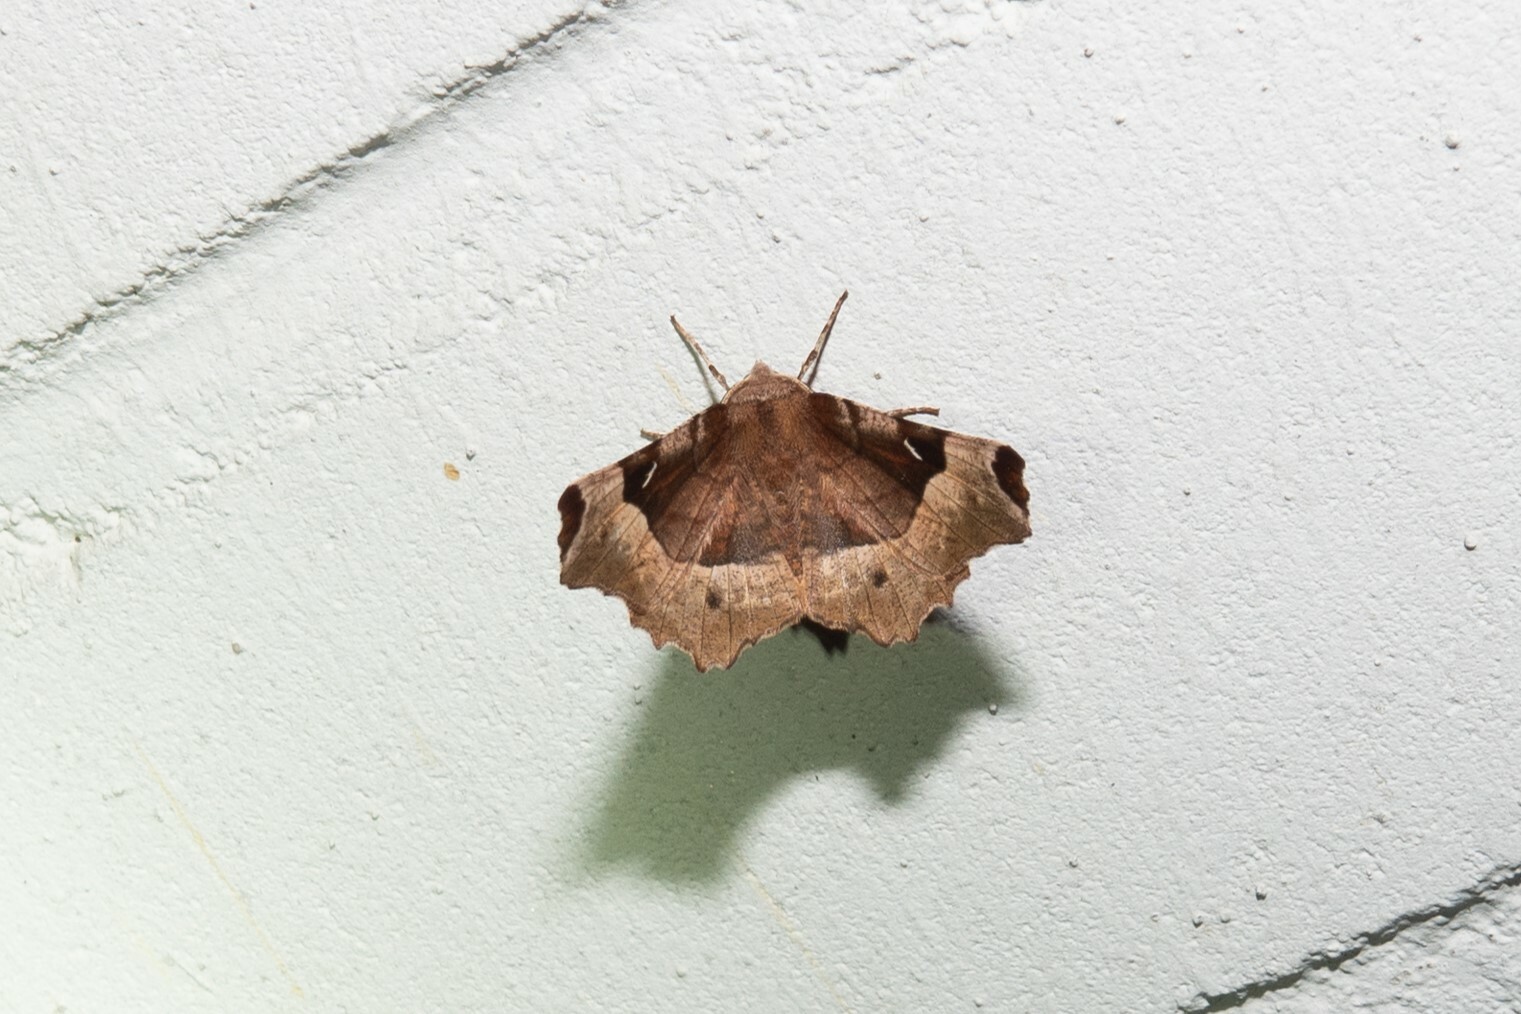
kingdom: Animalia
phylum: Arthropoda
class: Insecta
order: Lepidoptera
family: Geometridae
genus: Selenia
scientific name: Selenia tetralunaria
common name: Purple thorn
